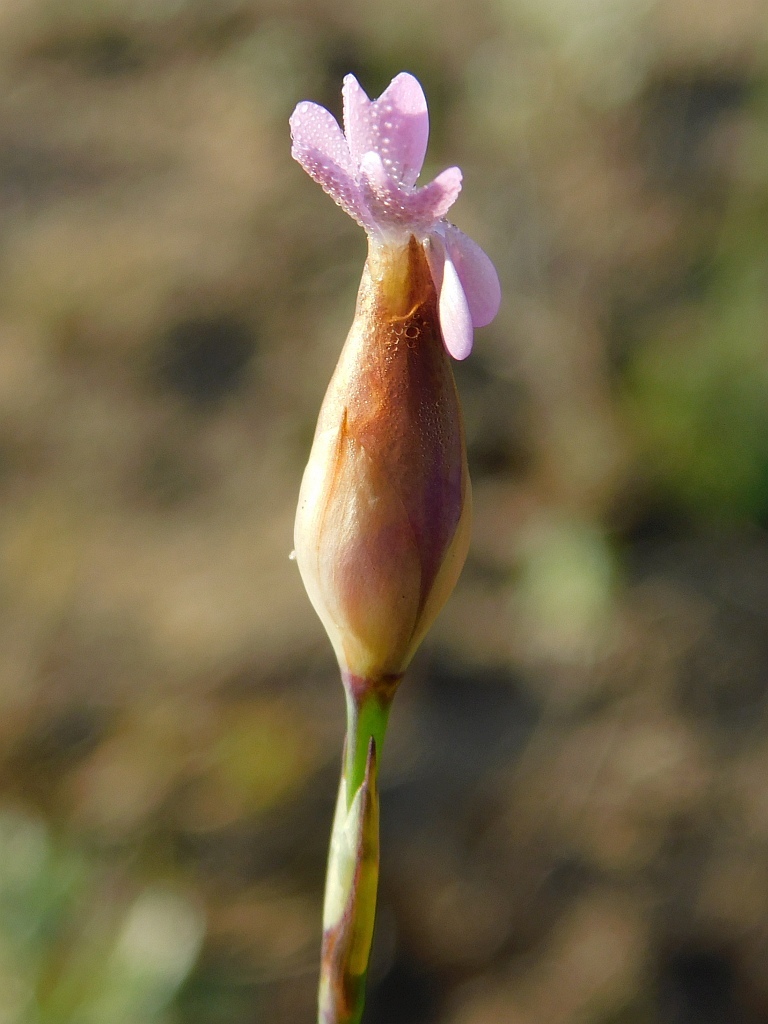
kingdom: Plantae
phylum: Tracheophyta
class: Magnoliopsida
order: Caryophyllales
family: Caryophyllaceae
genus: Petrorhagia
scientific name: Petrorhagia prolifera
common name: Proliferous pink
